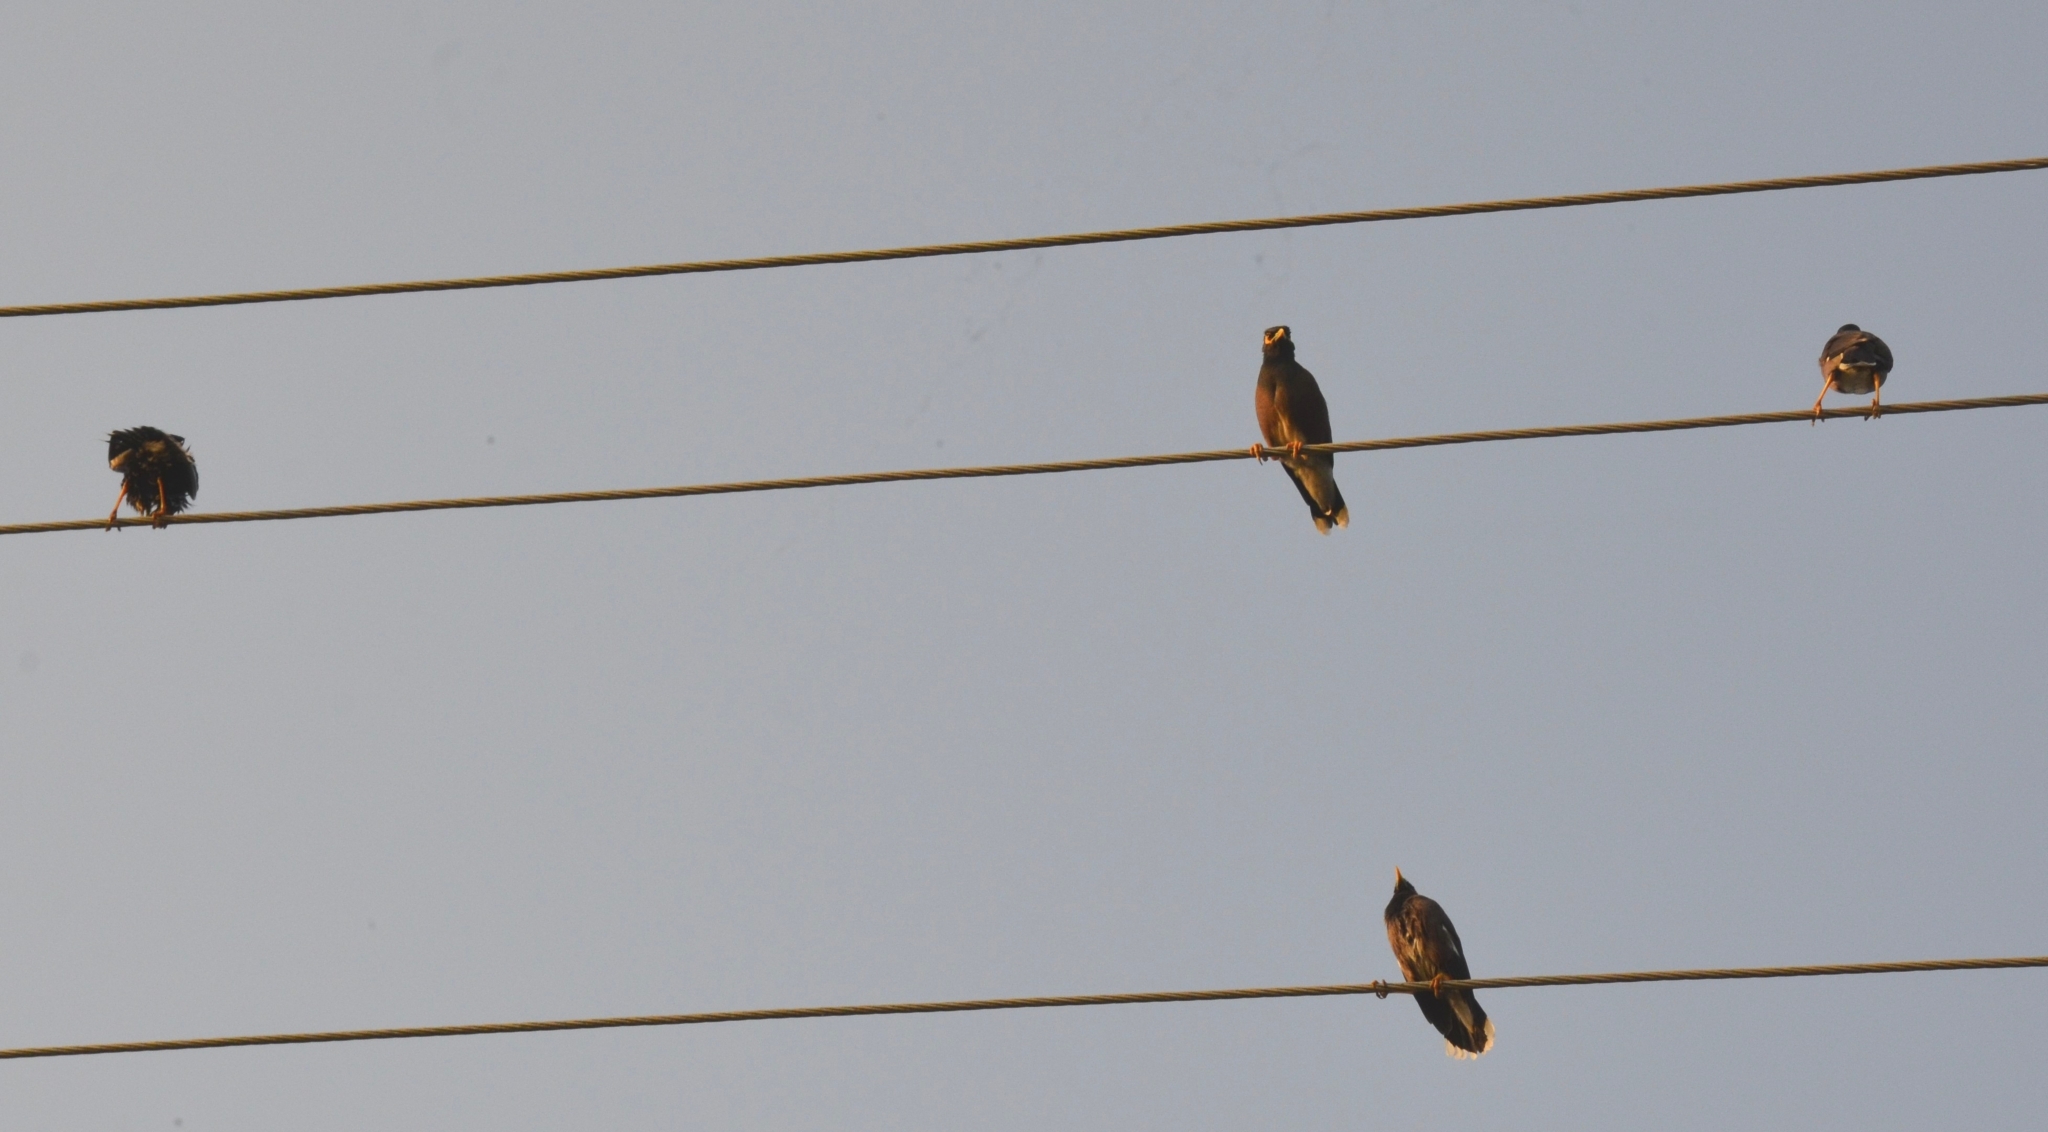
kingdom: Animalia
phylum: Chordata
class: Aves
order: Passeriformes
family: Sturnidae
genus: Acridotheres
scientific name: Acridotheres tristis
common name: Common myna
